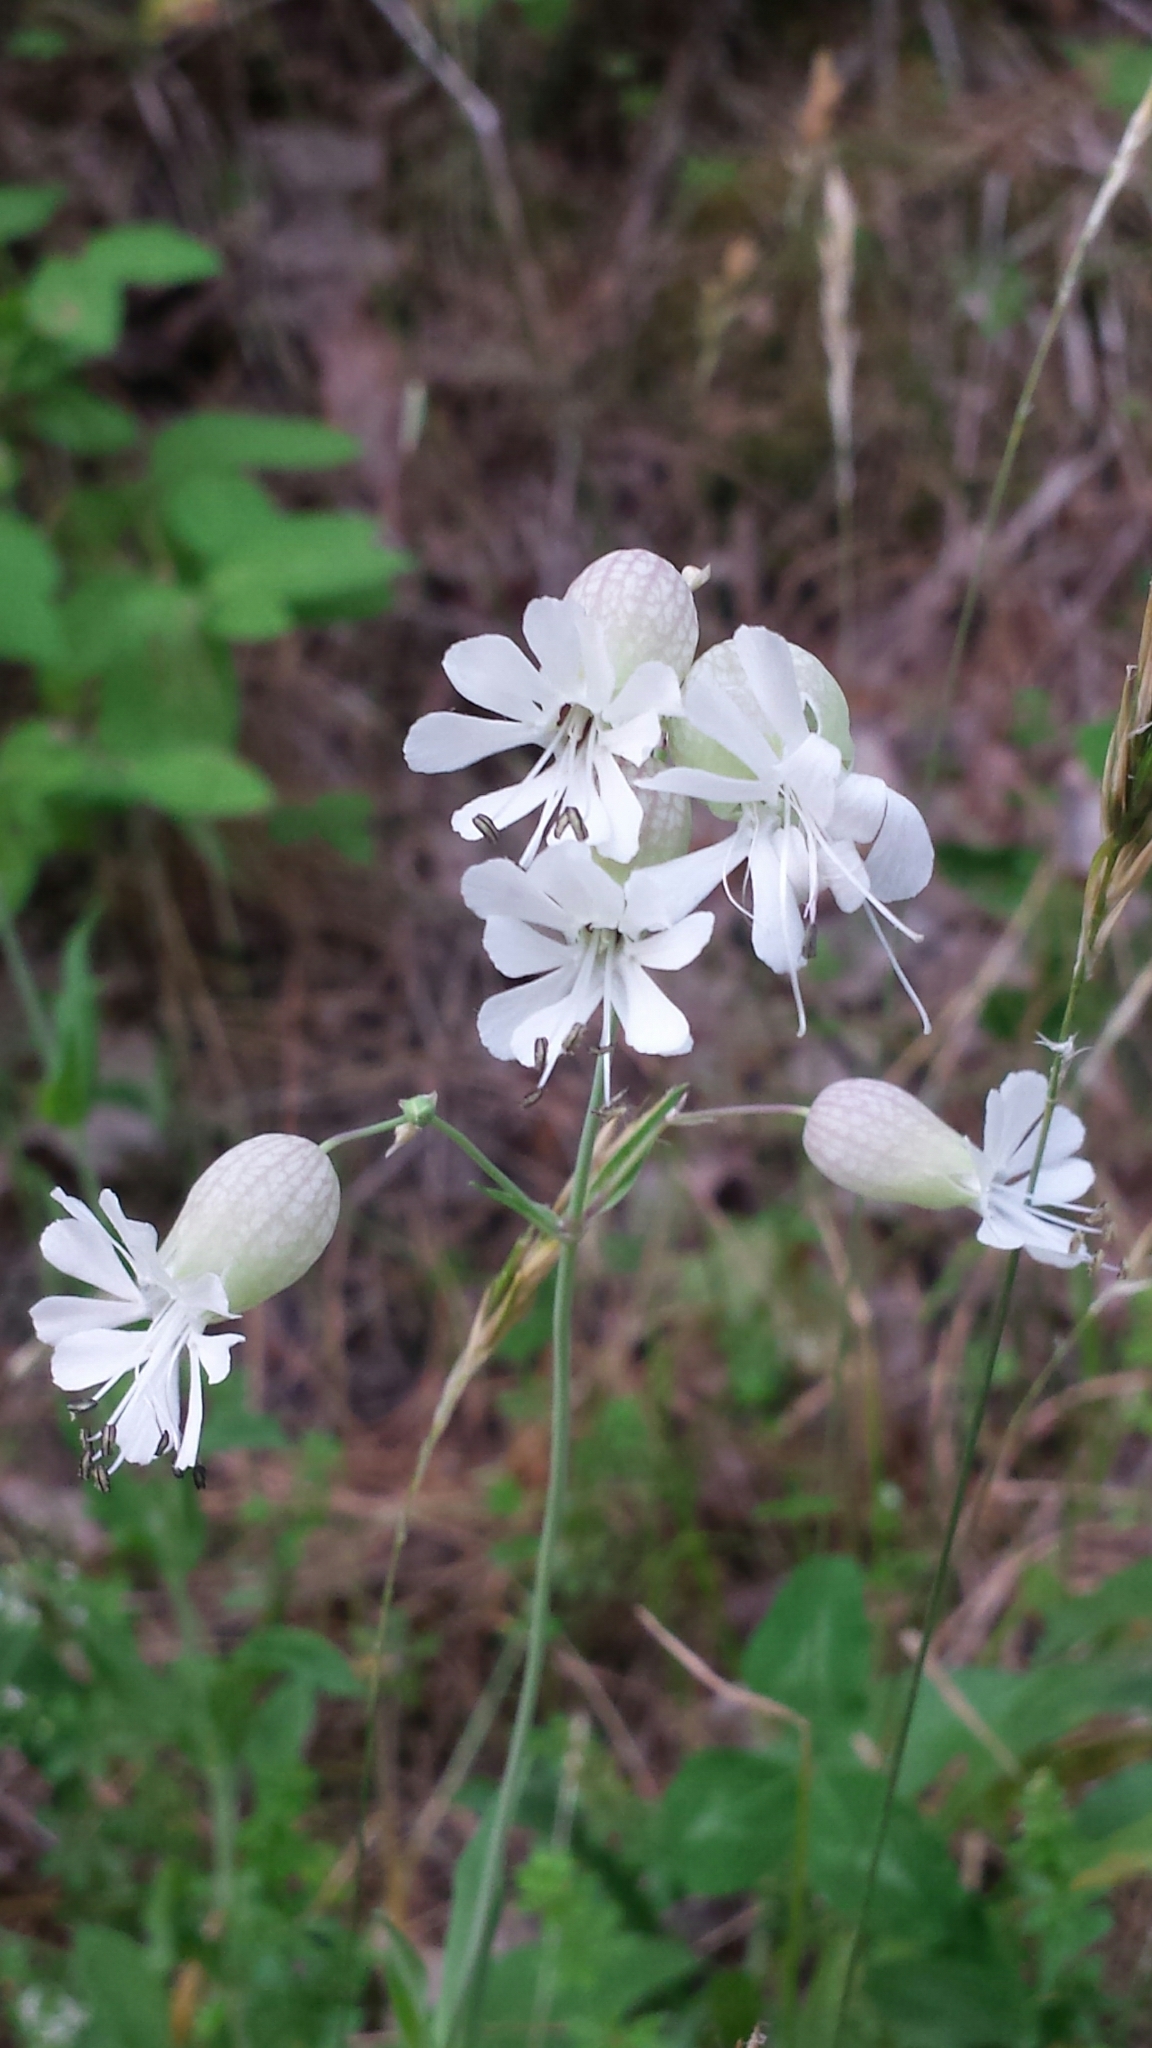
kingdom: Plantae
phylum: Tracheophyta
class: Magnoliopsida
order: Caryophyllales
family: Caryophyllaceae
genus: Silene
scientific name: Silene vulgaris
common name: Bladder campion
